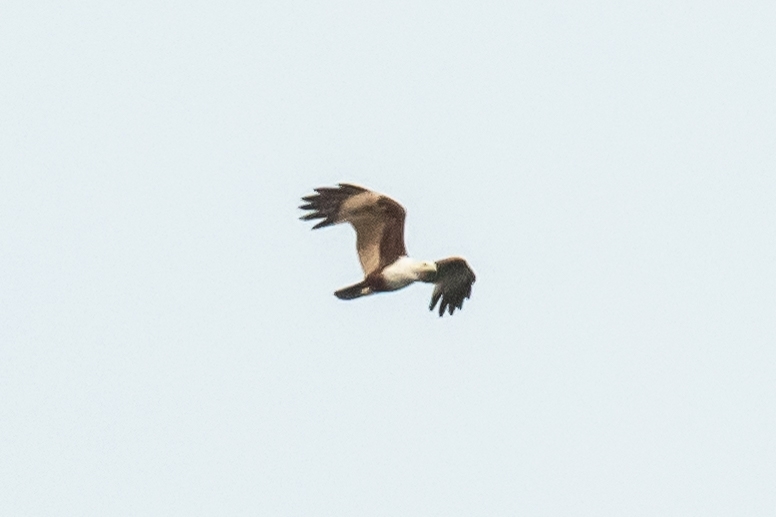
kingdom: Animalia
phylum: Chordata
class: Aves
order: Accipitriformes
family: Accipitridae
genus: Haliastur
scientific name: Haliastur indus
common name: Brahminy kite
